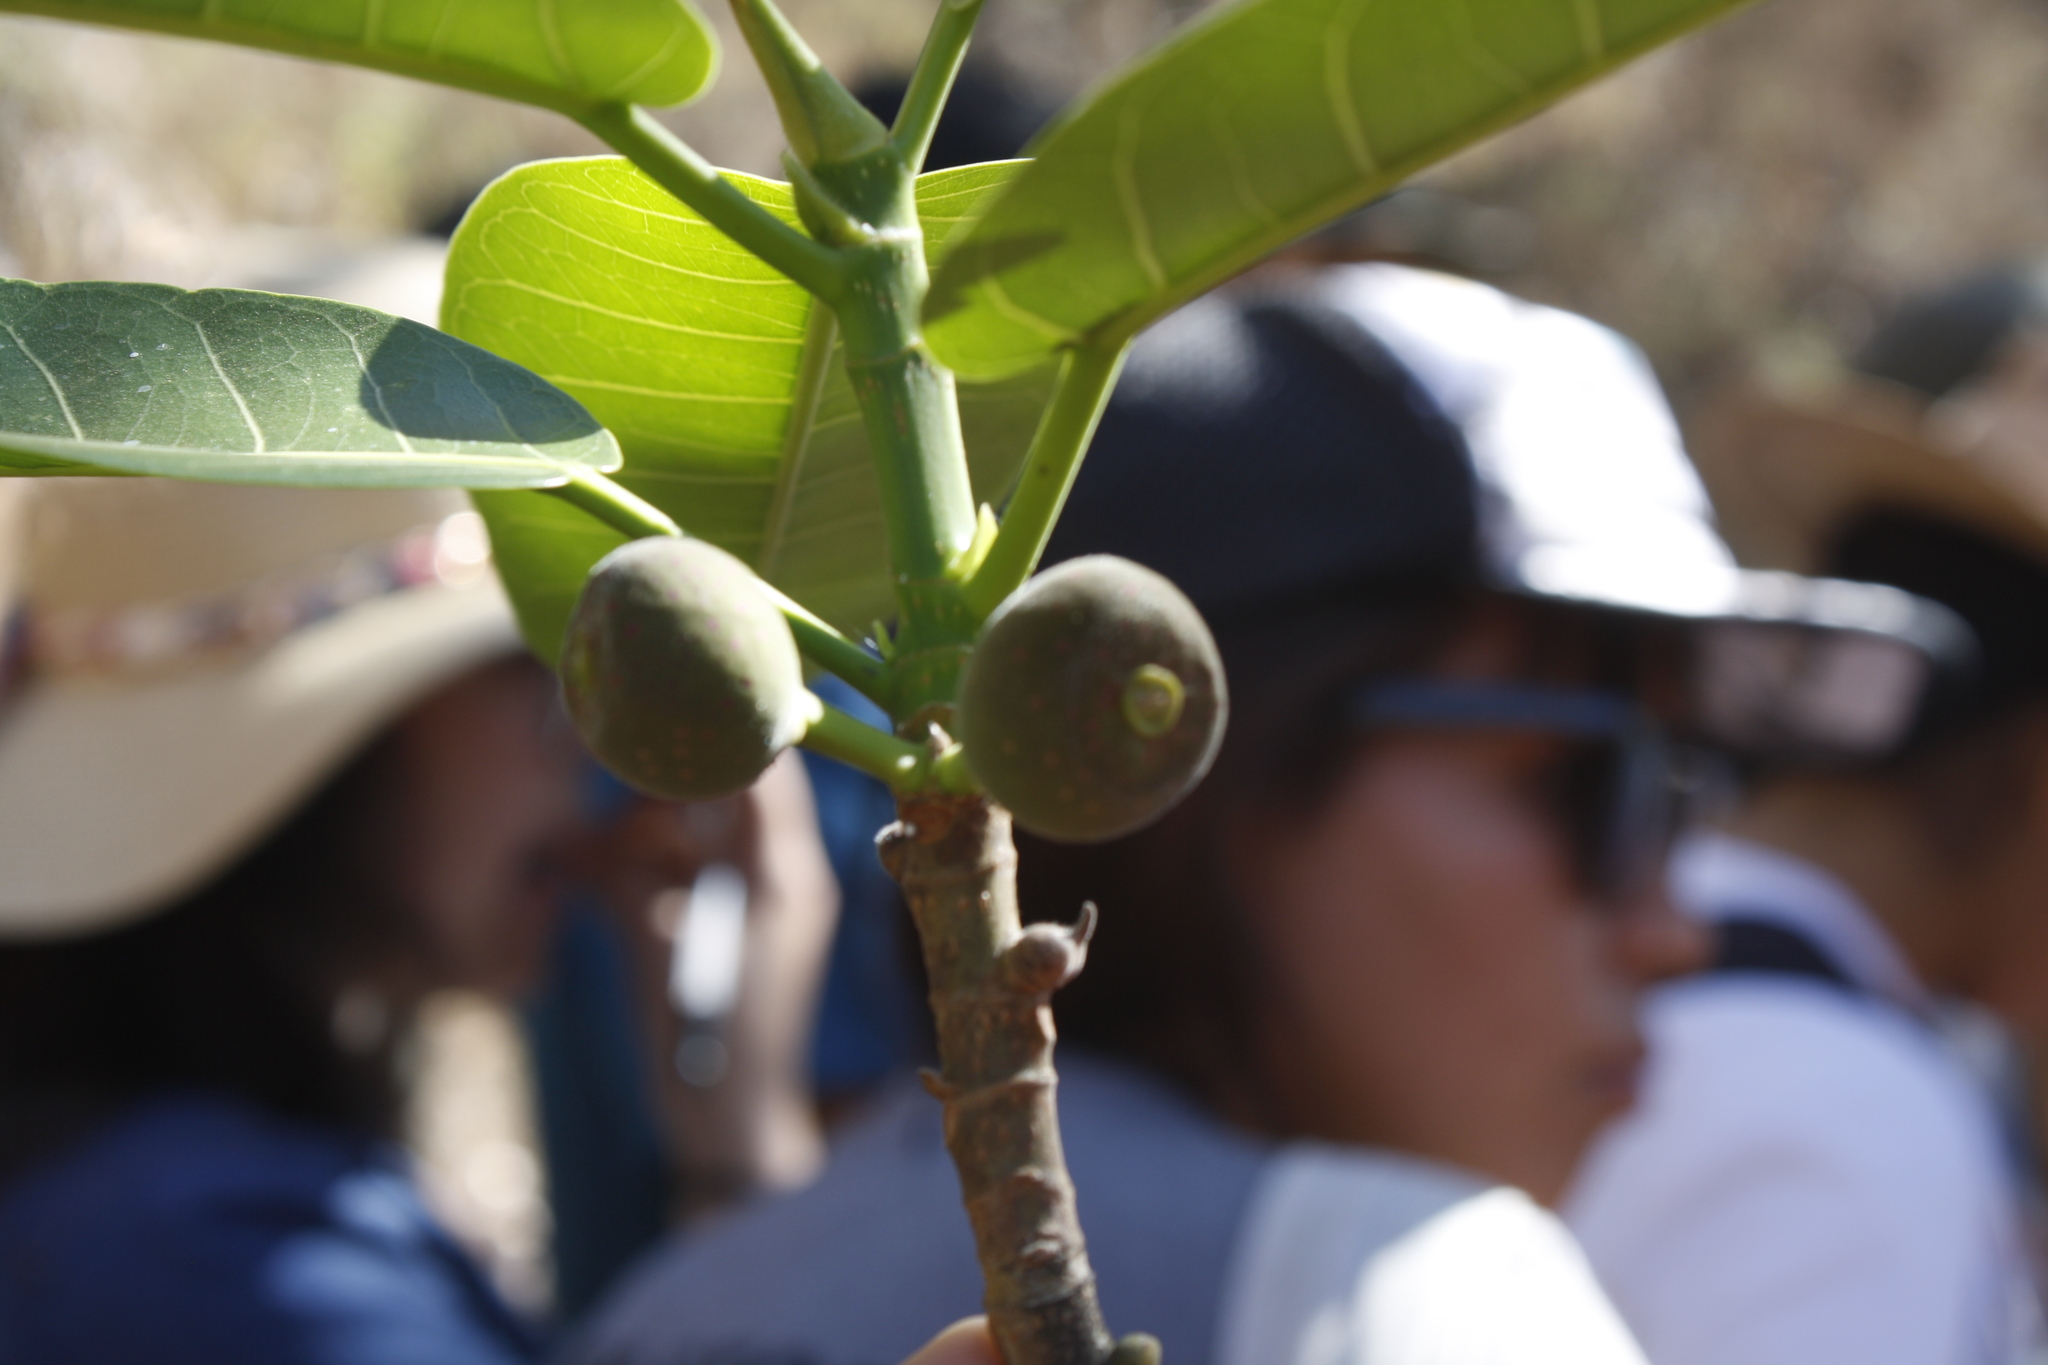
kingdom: Plantae
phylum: Tracheophyta
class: Magnoliopsida
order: Rosales
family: Moraceae
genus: Ficus
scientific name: Ficus crocata
